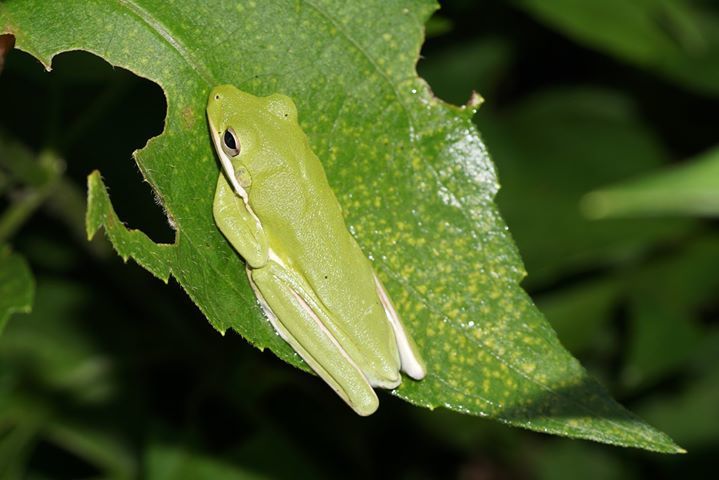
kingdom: Animalia
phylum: Chordata
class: Amphibia
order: Anura
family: Hylidae
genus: Dryophytes
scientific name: Dryophytes cinereus
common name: Green treefrog
